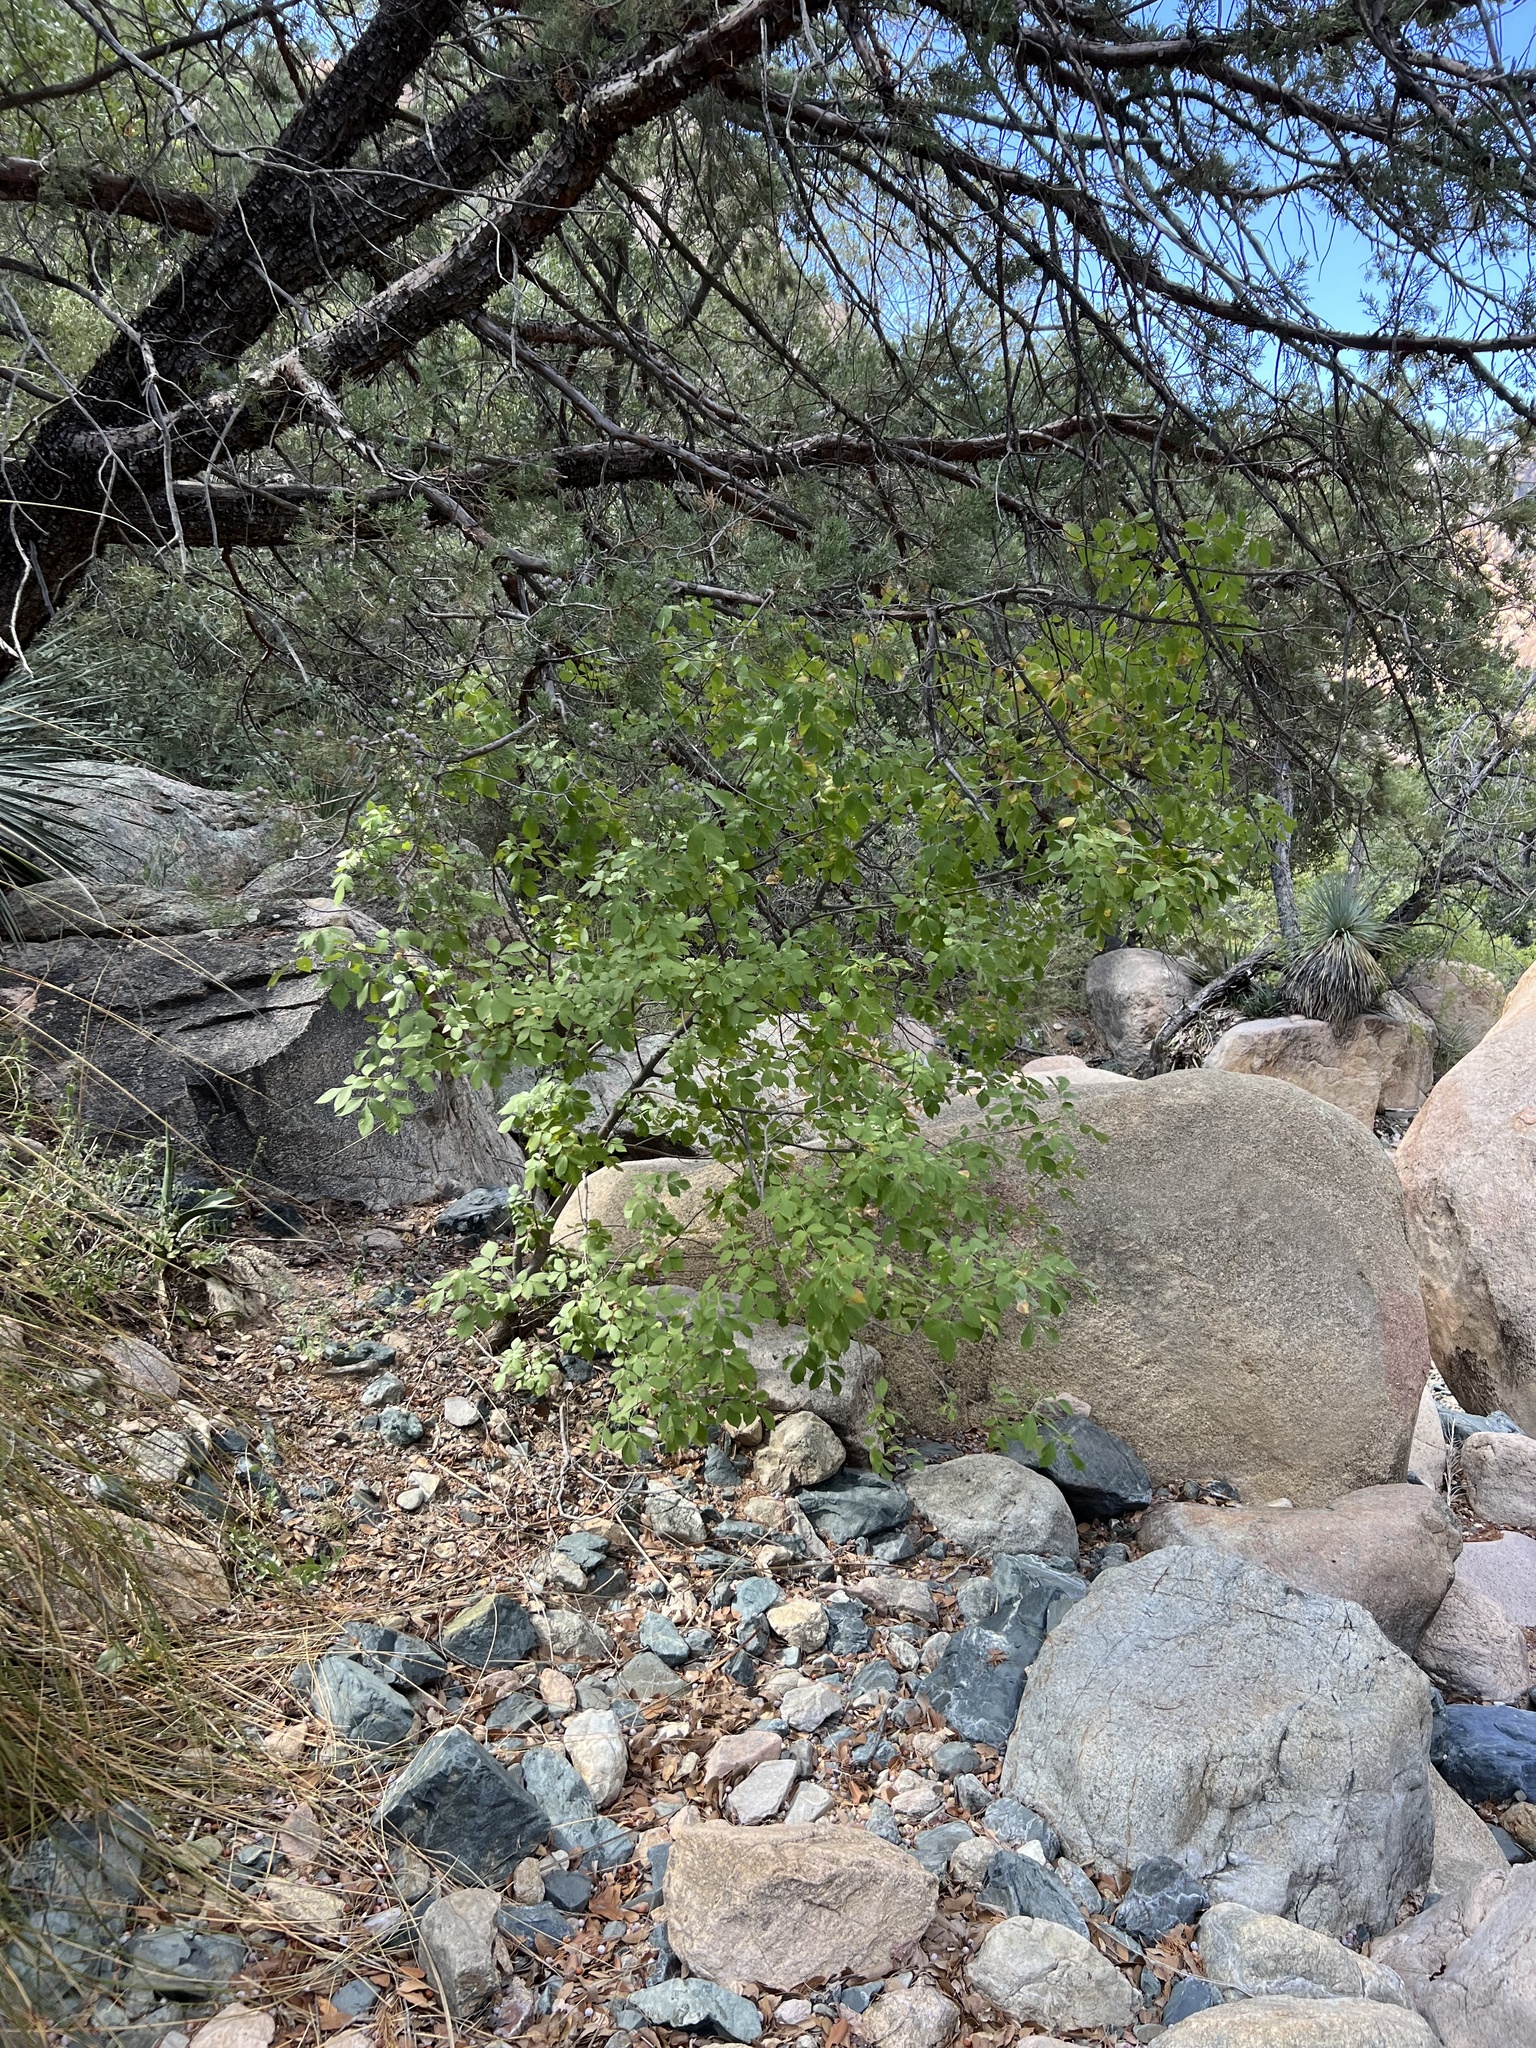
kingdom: Plantae
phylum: Tracheophyta
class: Magnoliopsida
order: Lamiales
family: Oleaceae
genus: Fraxinus
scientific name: Fraxinus velutina
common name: Arizon ash
